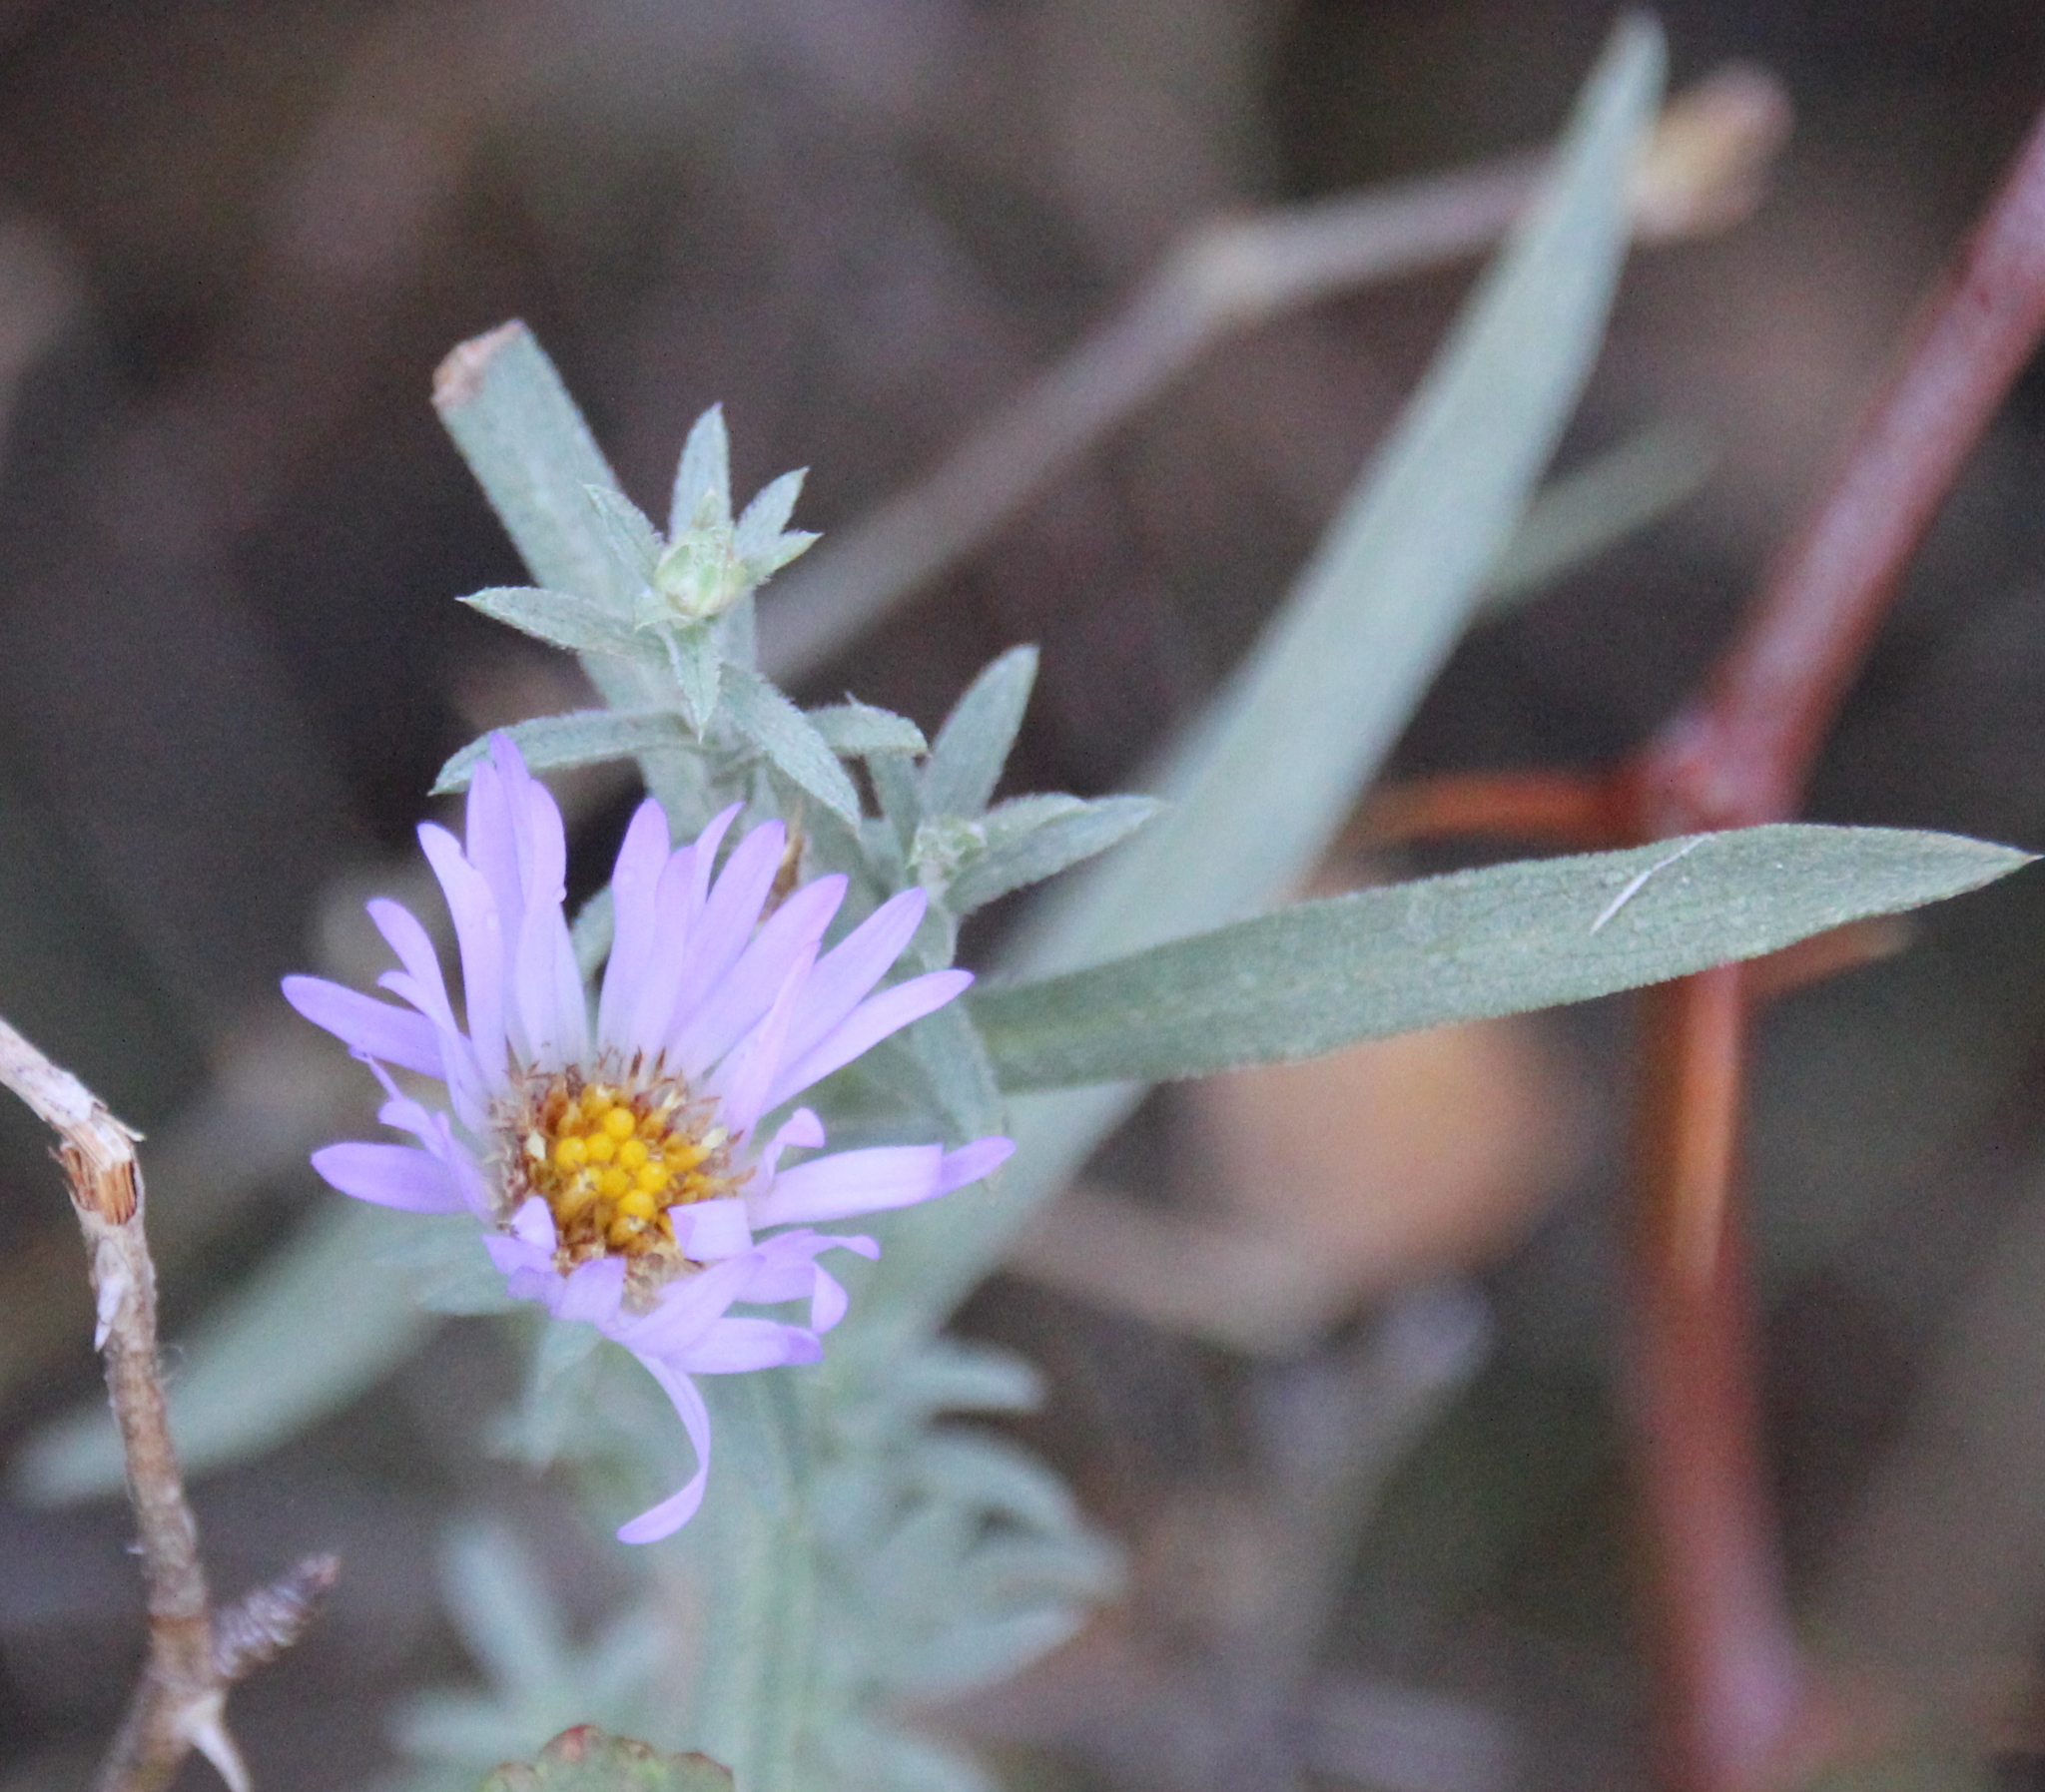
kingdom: Plantae
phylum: Tracheophyta
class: Magnoliopsida
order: Asterales
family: Asteraceae
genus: Symphyotrichum
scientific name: Symphyotrichum defoliatum
